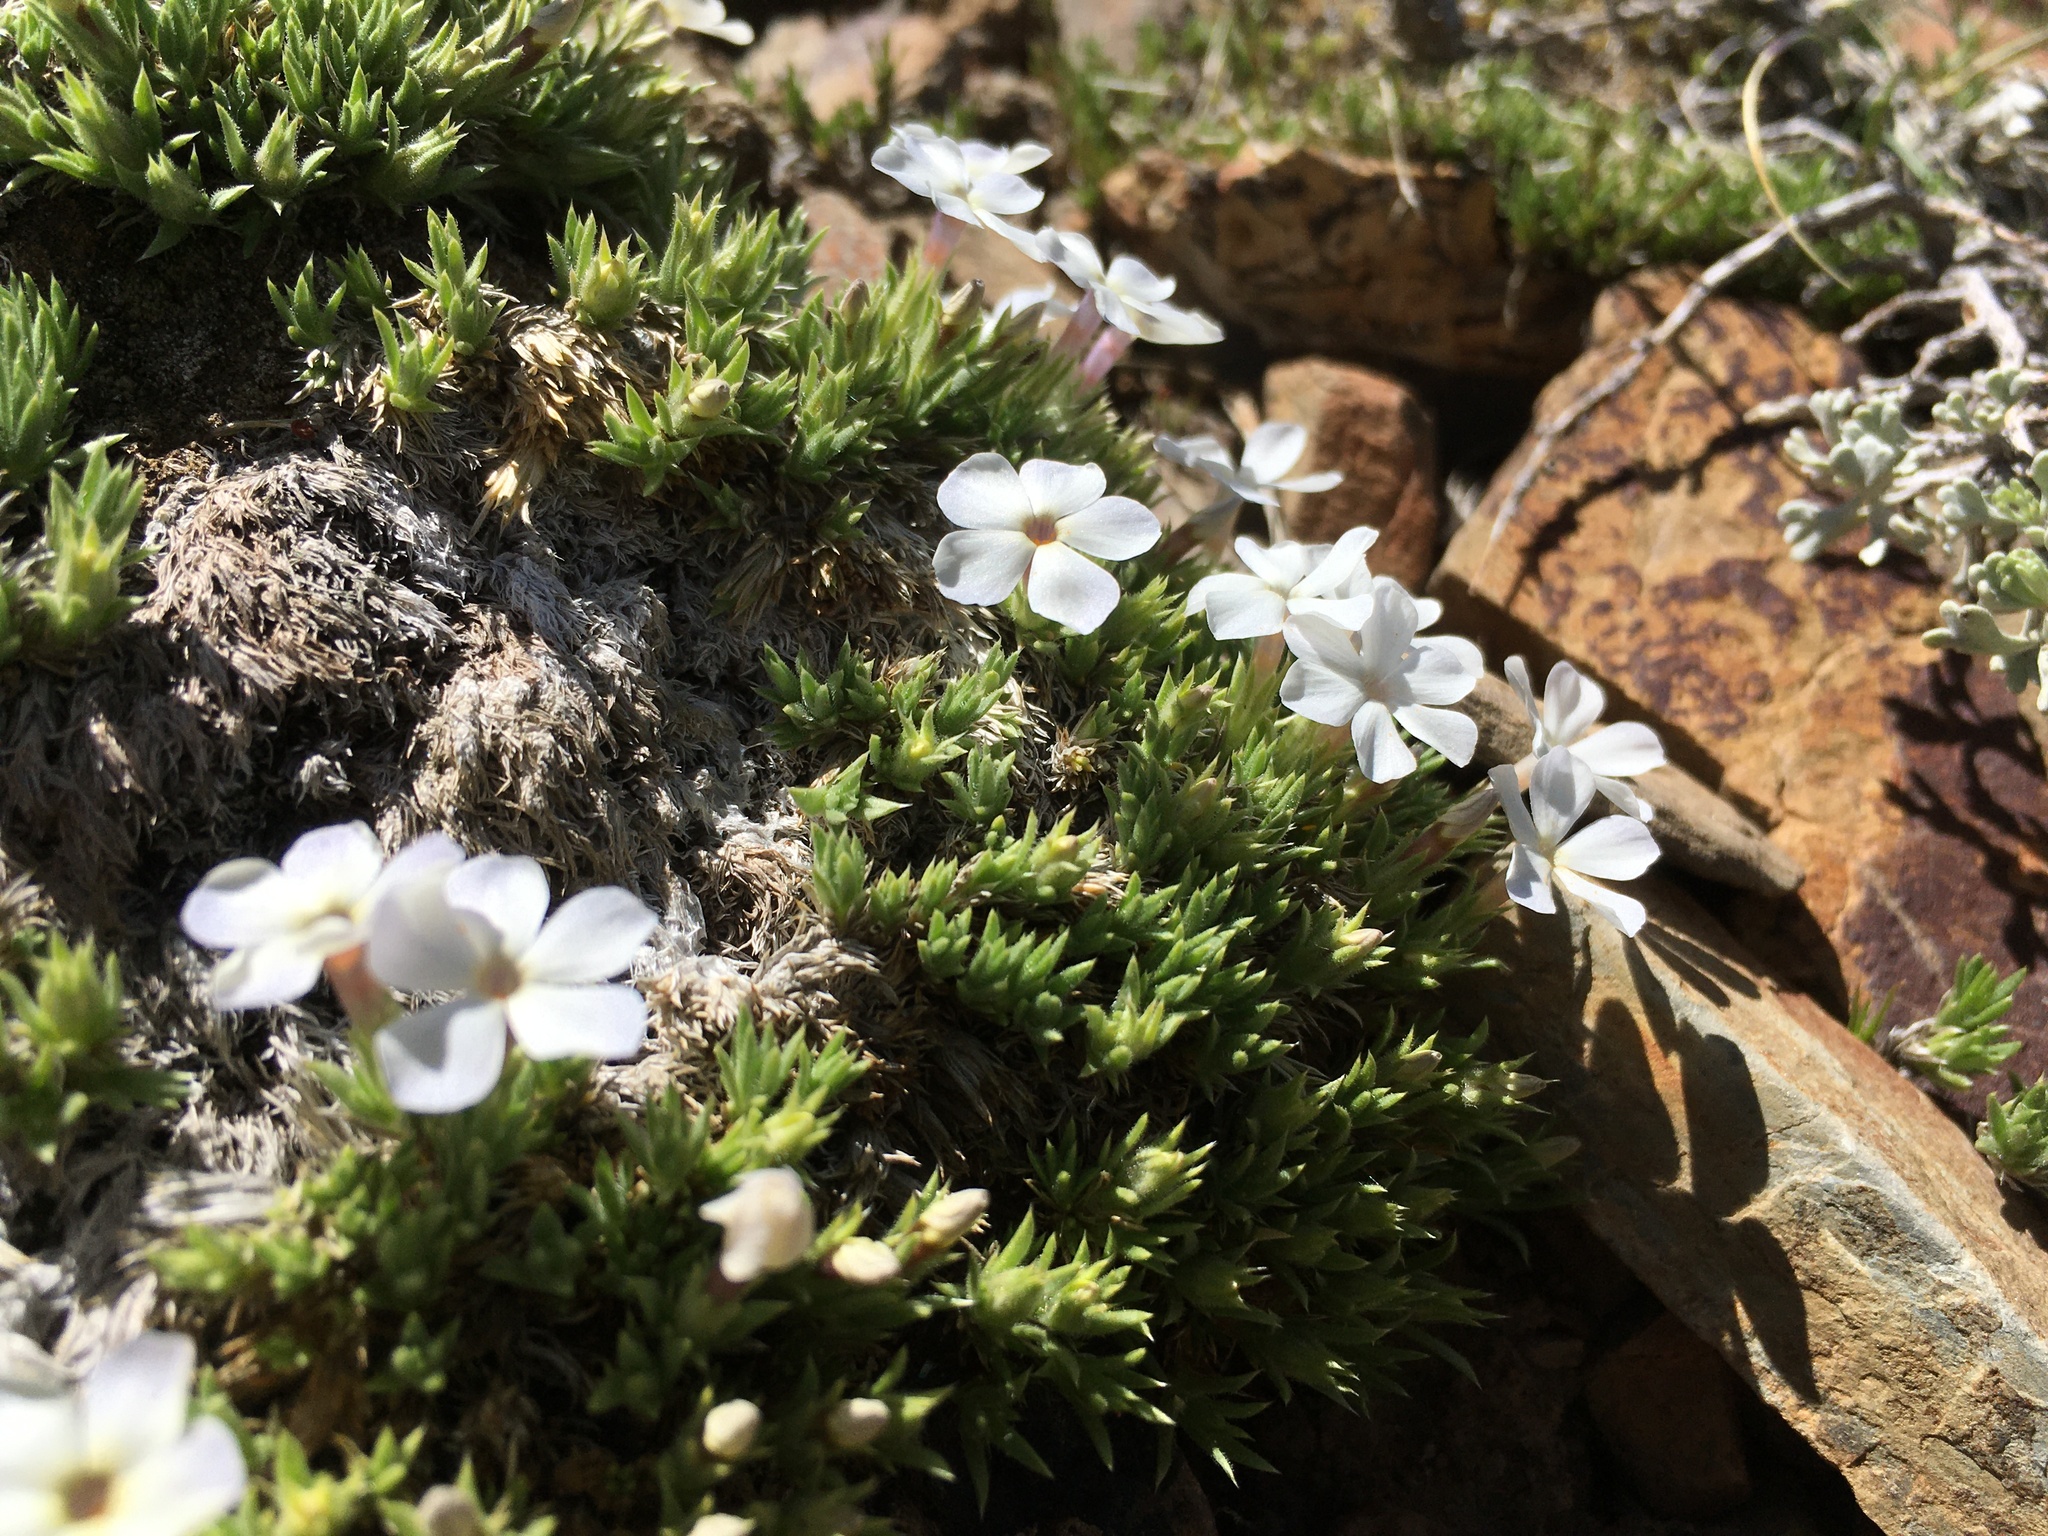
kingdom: Plantae
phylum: Tracheophyta
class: Magnoliopsida
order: Ericales
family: Polemoniaceae
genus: Phlox
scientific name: Phlox condensata
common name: Compact phlox
